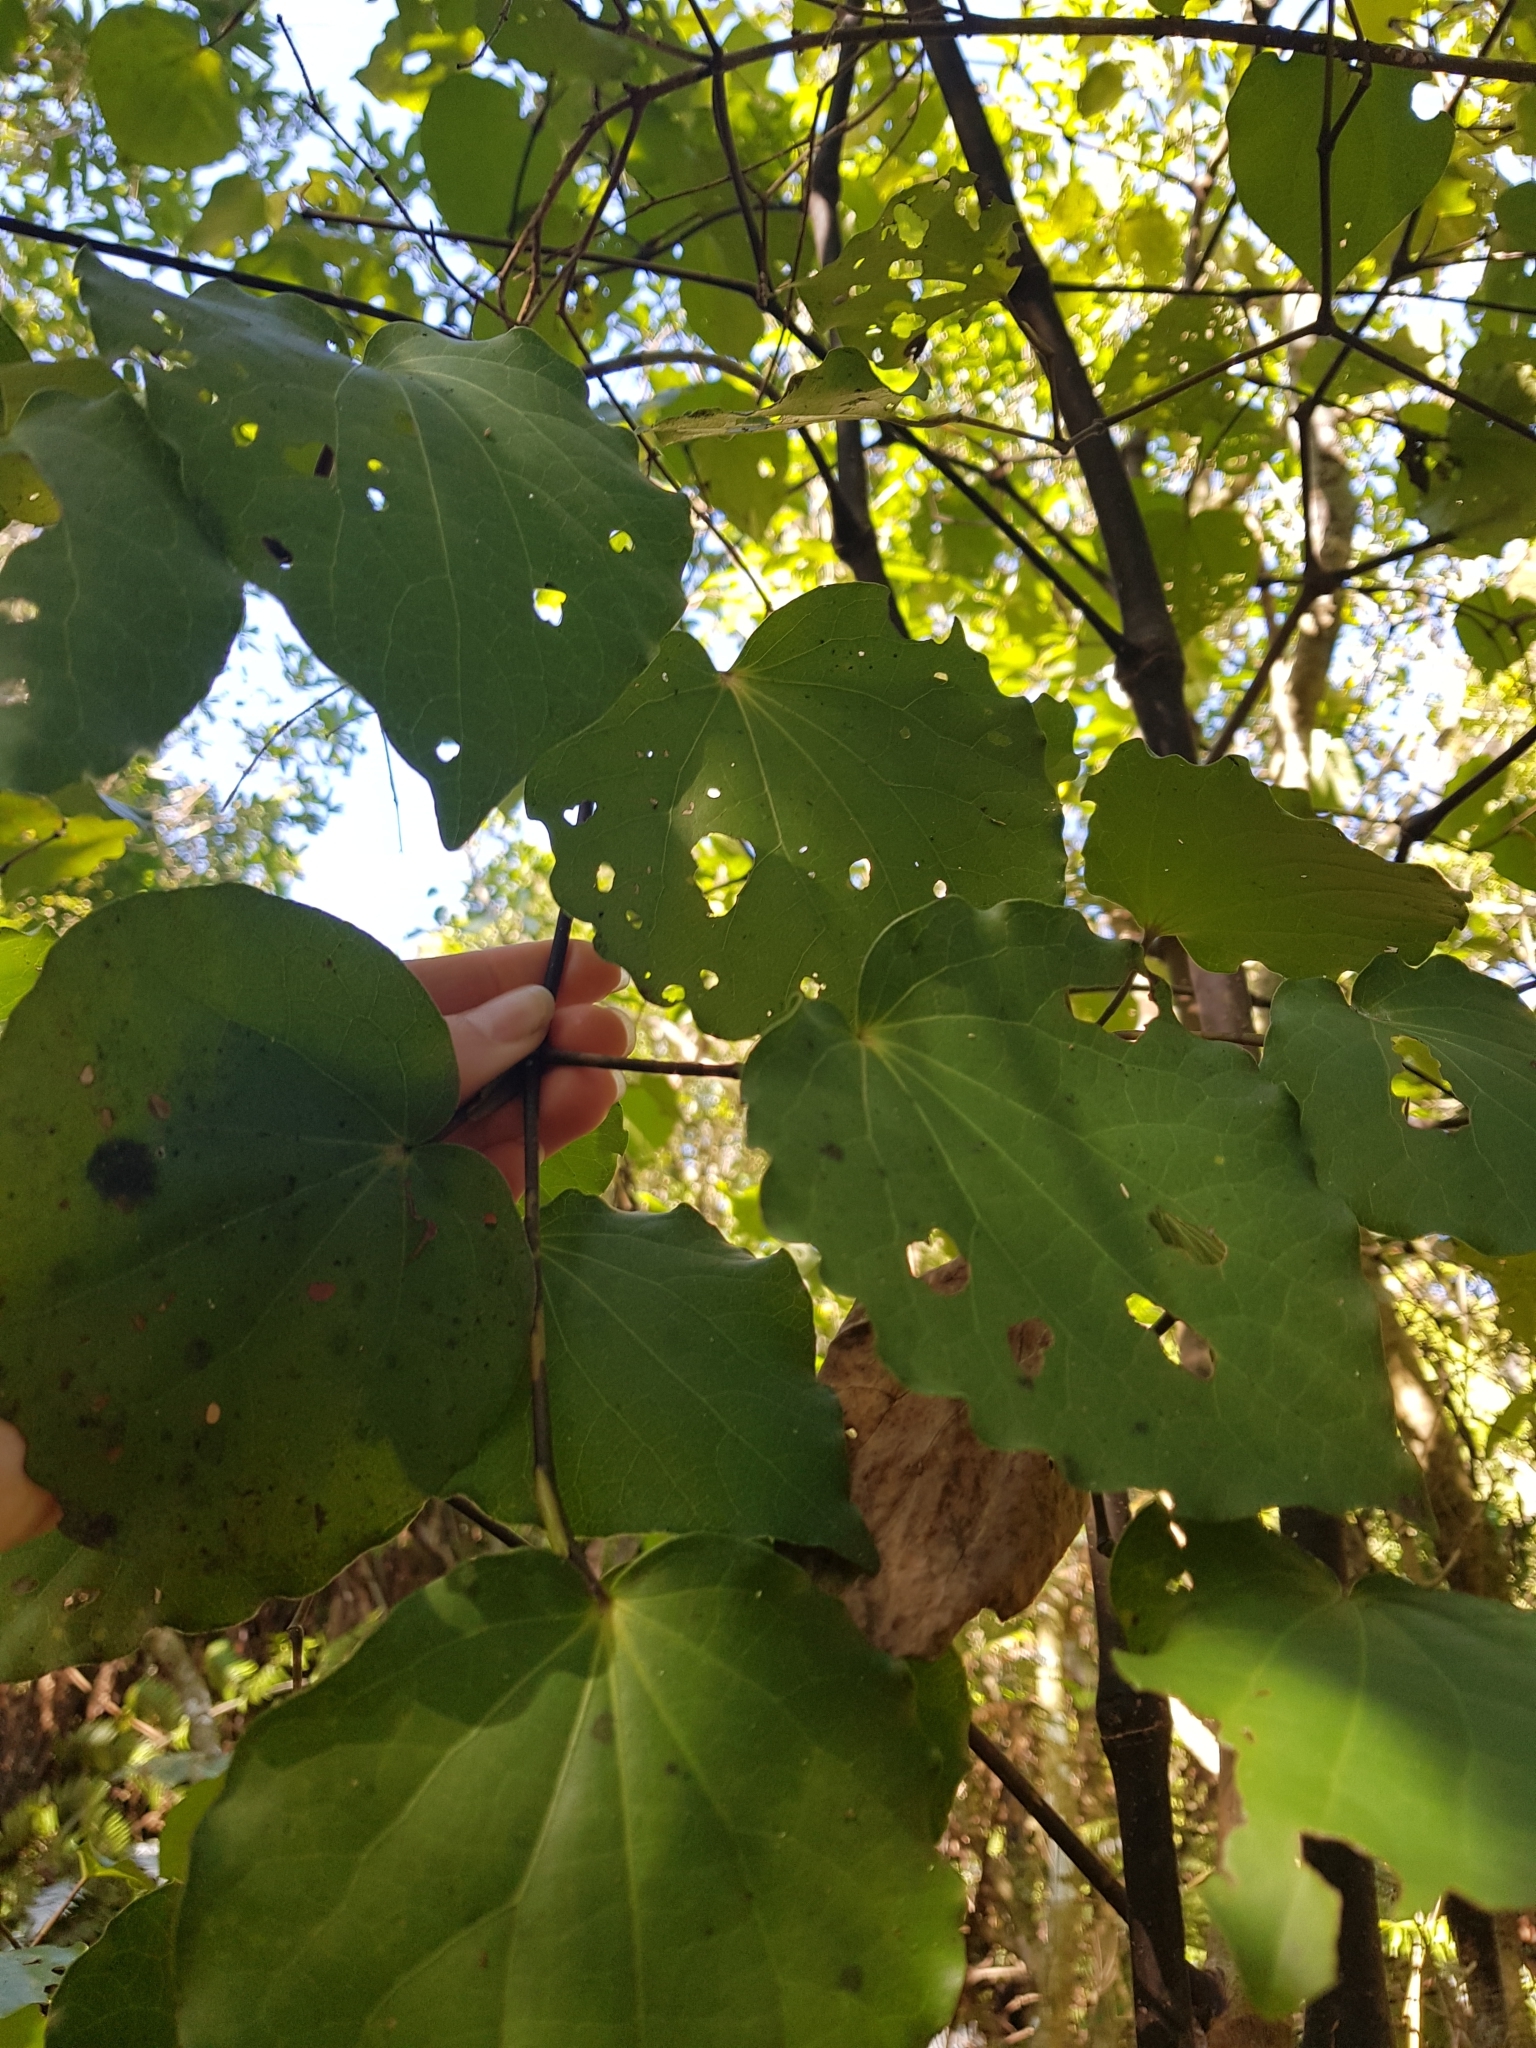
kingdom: Plantae
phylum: Tracheophyta
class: Magnoliopsida
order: Piperales
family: Piperaceae
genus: Macropiper
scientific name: Macropiper excelsum
